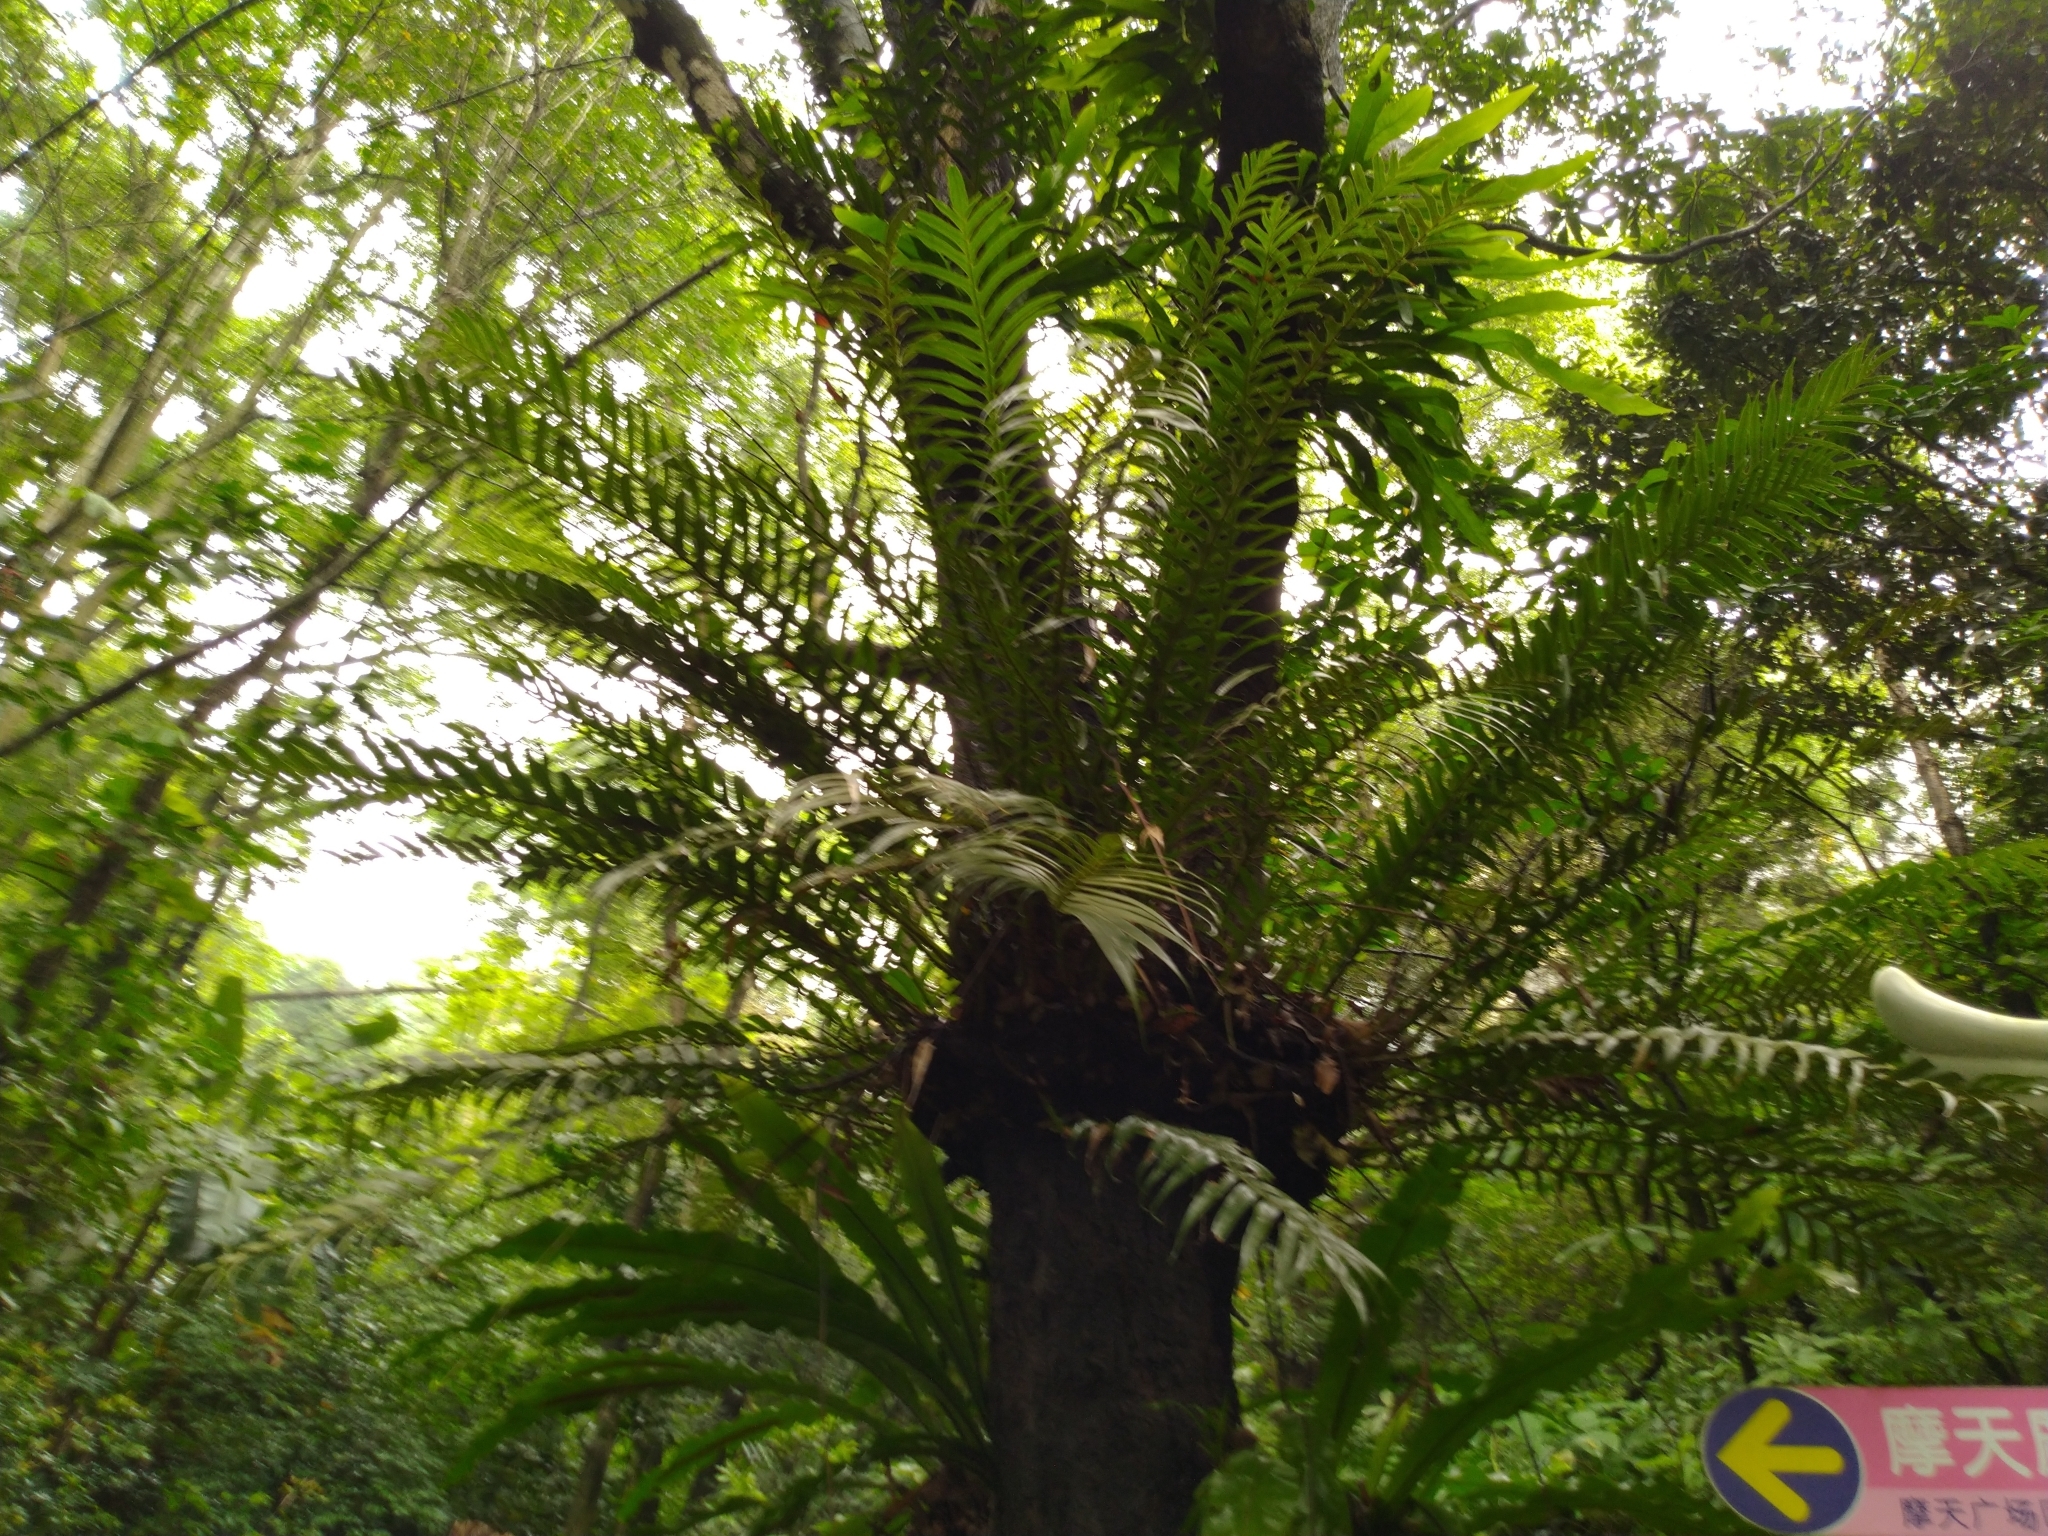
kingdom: Plantae
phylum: Tracheophyta
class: Polypodiopsida
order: Polypodiales
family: Polypodiaceae
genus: Drynaria
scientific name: Drynaria coronans
